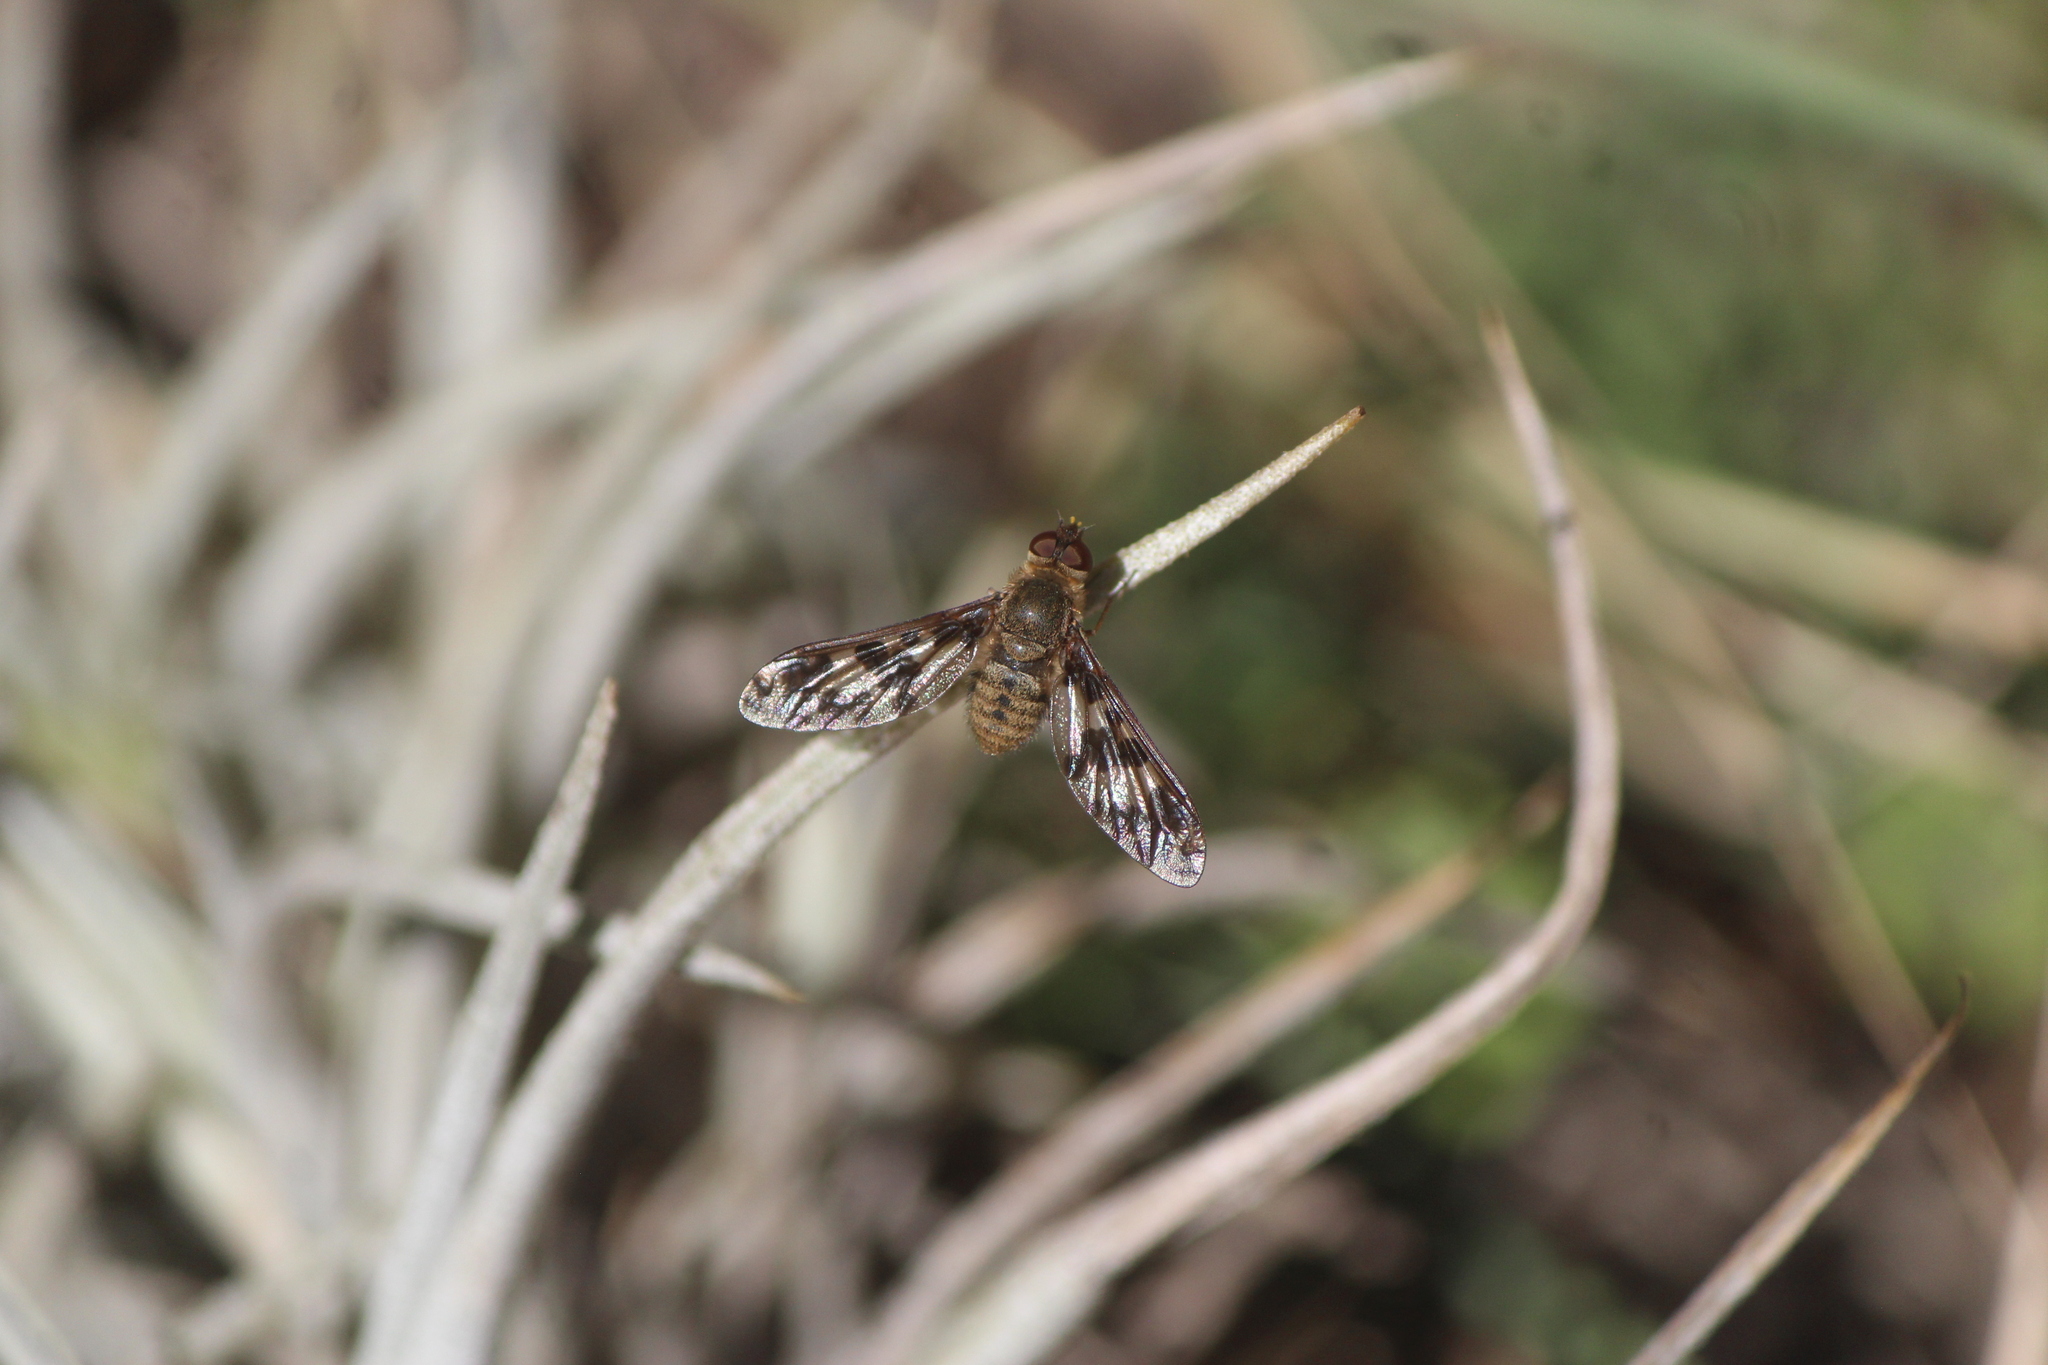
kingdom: Animalia
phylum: Arthropoda
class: Insecta
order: Diptera
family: Bombyliidae
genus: Dipalta
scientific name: Dipalta serpentina
